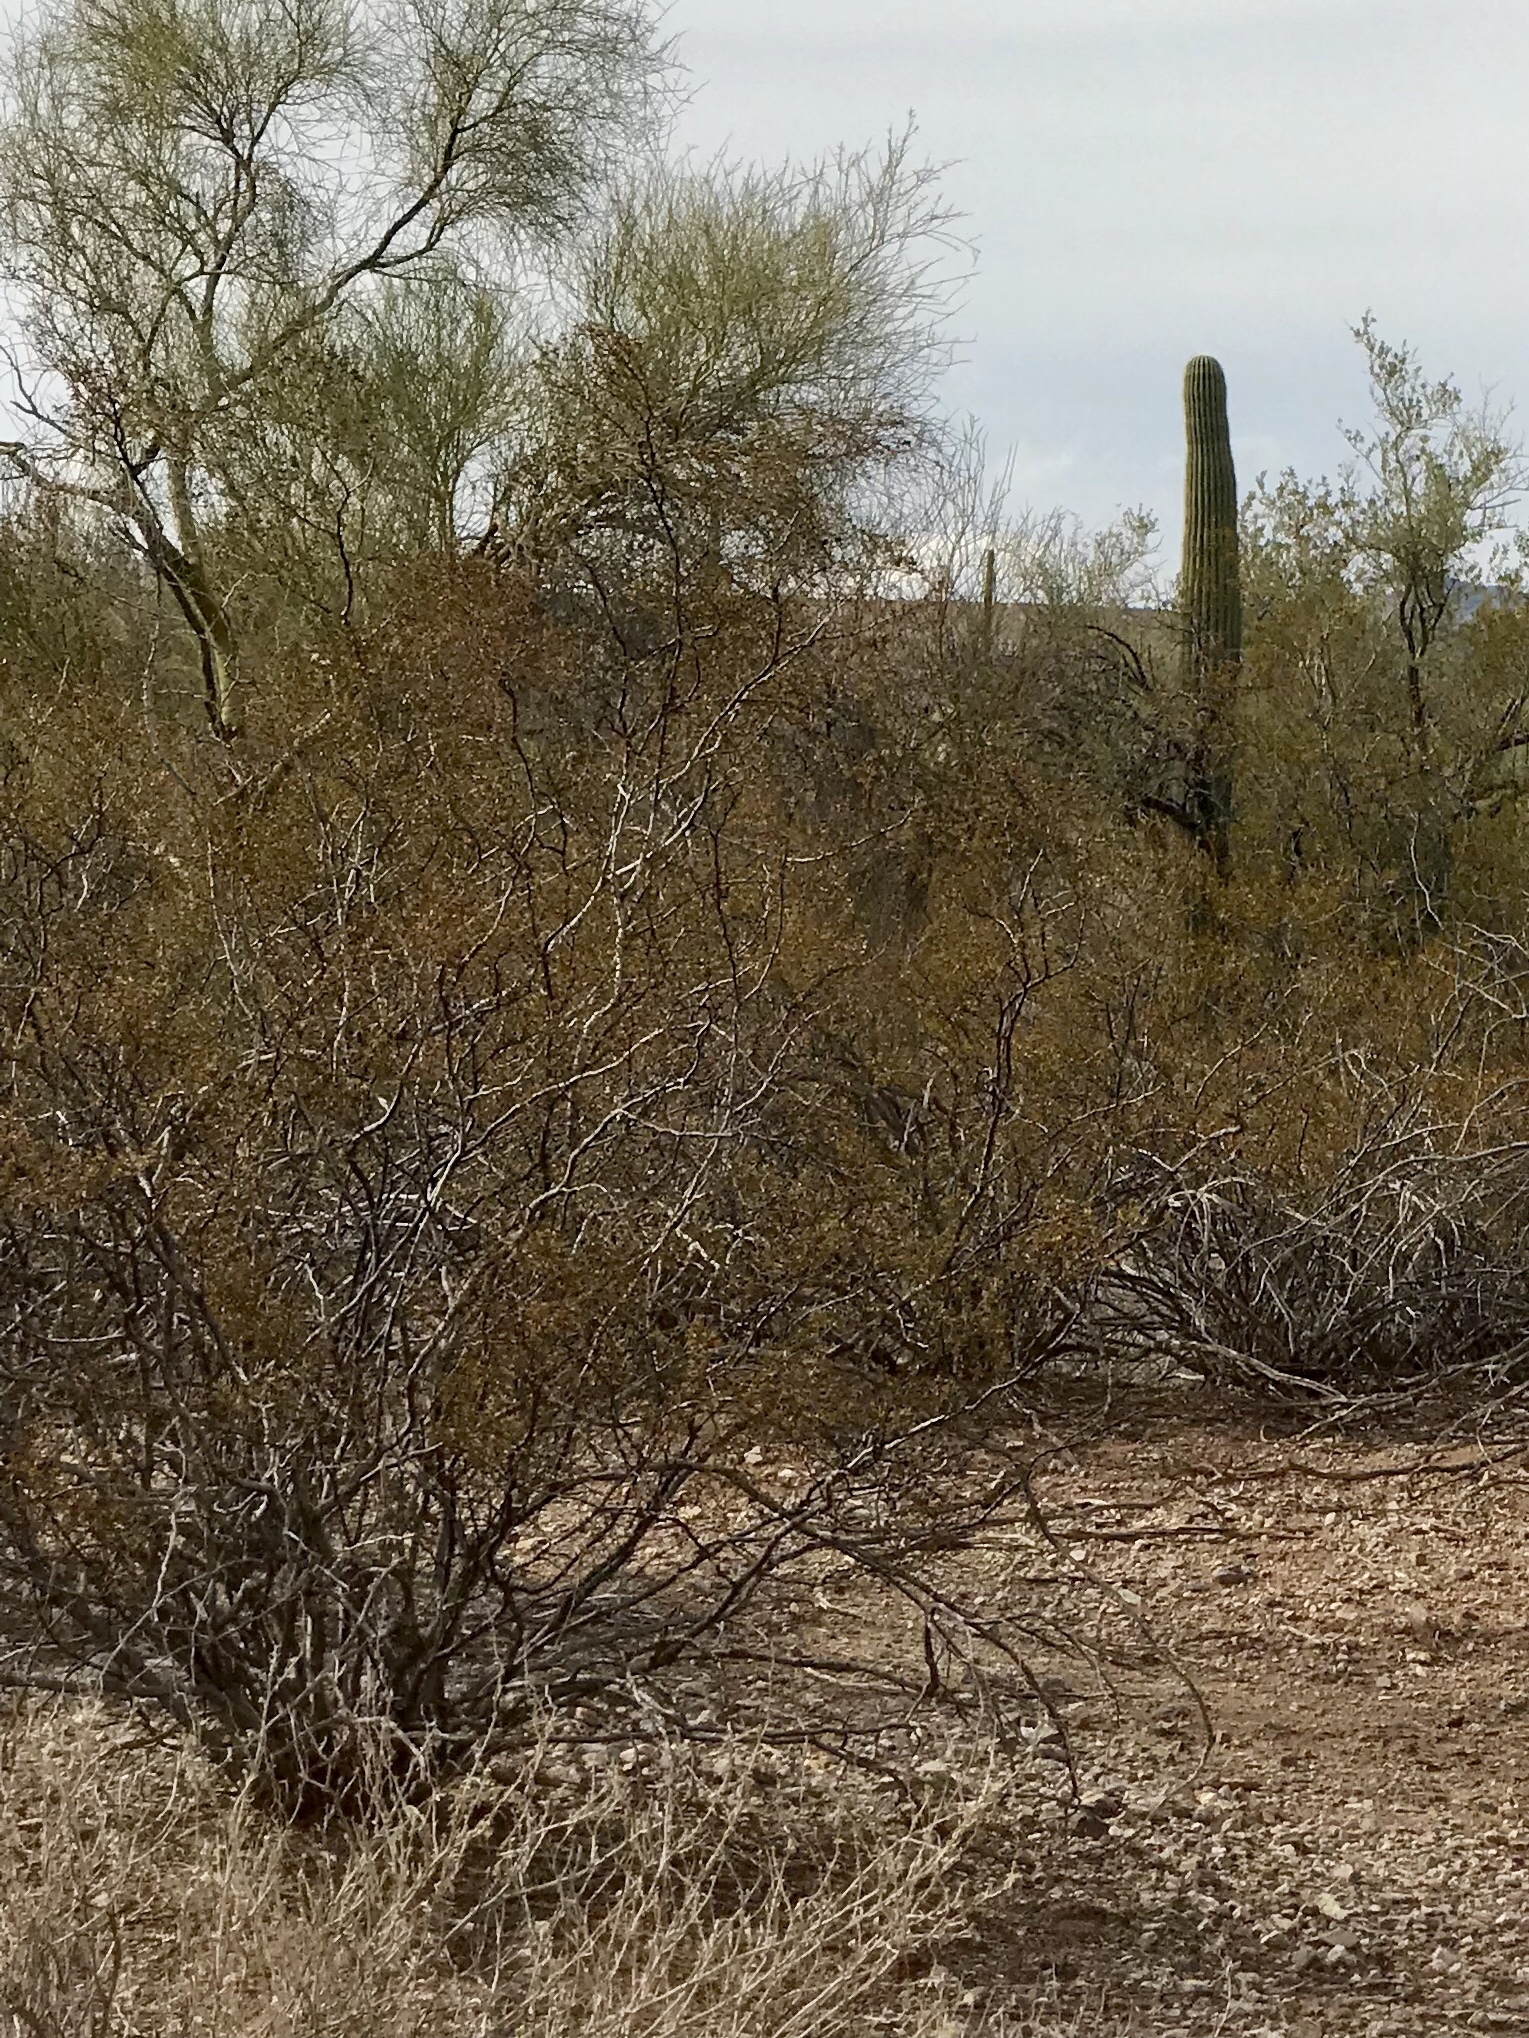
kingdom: Plantae
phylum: Tracheophyta
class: Magnoliopsida
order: Zygophyllales
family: Zygophyllaceae
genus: Larrea
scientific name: Larrea tridentata
